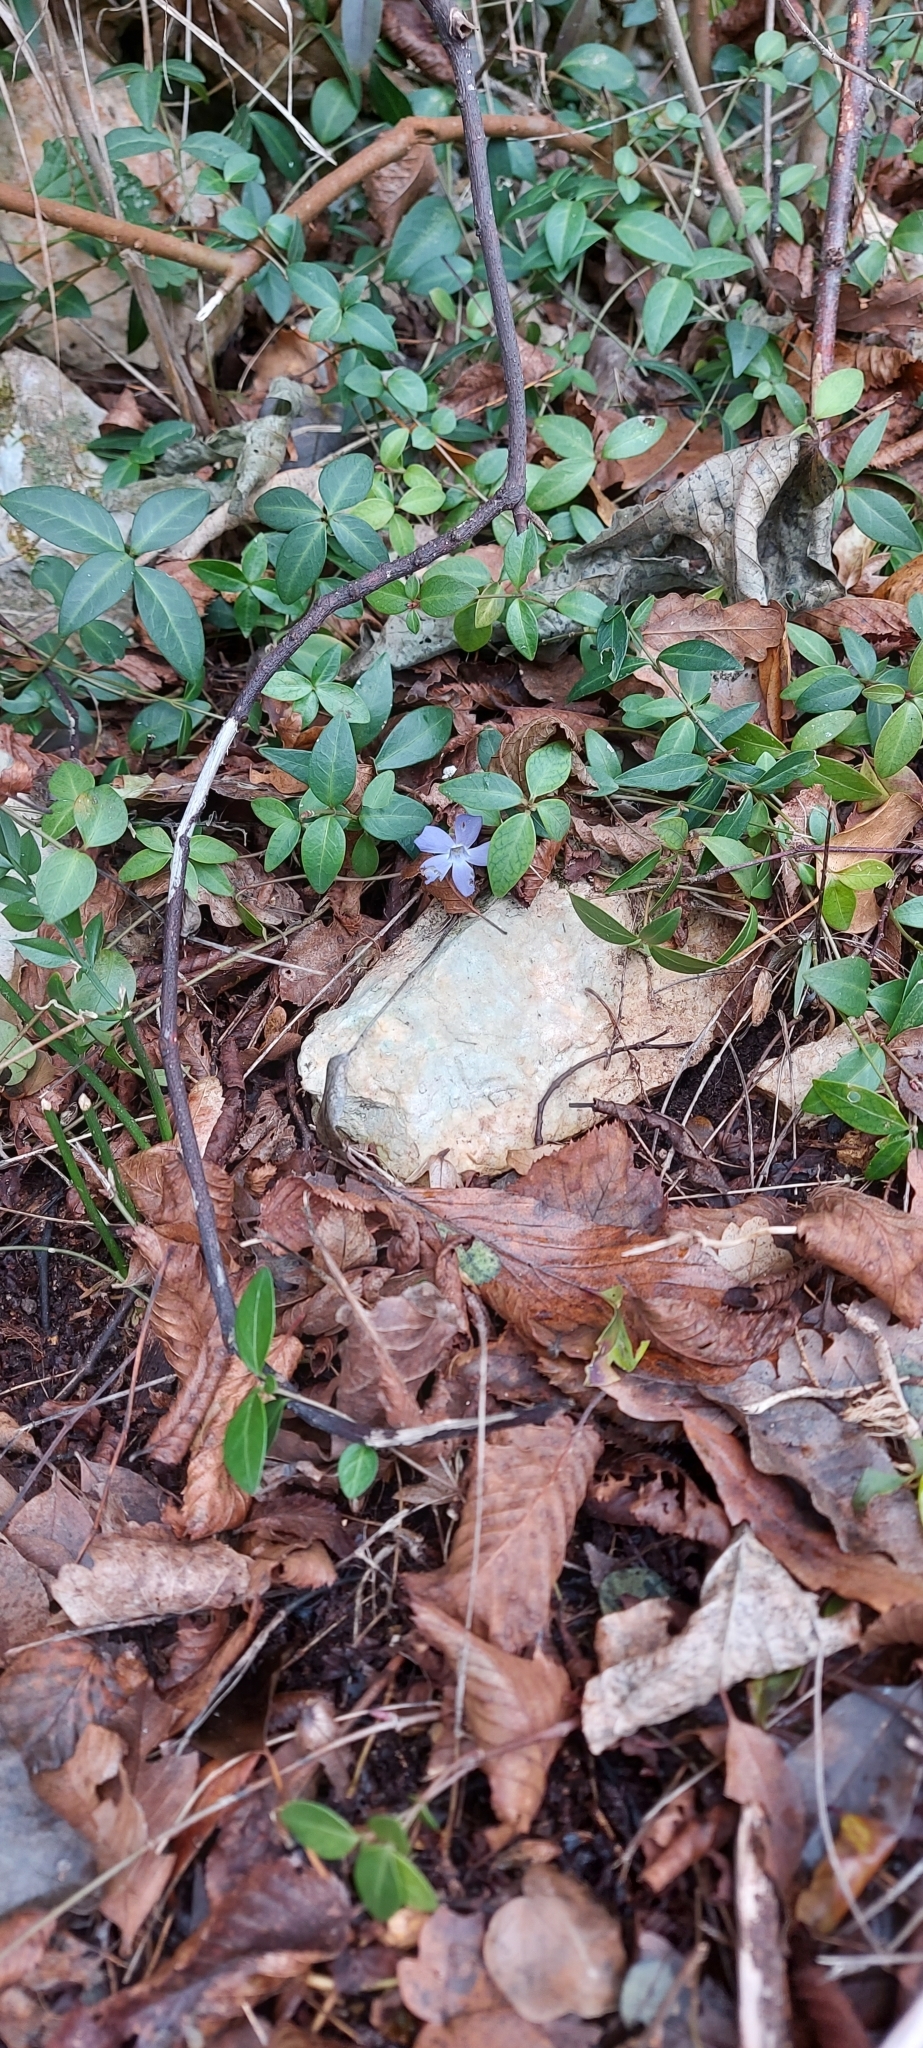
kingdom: Plantae
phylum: Tracheophyta
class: Magnoliopsida
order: Gentianales
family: Apocynaceae
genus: Vinca
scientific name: Vinca minor
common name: Lesser periwinkle
